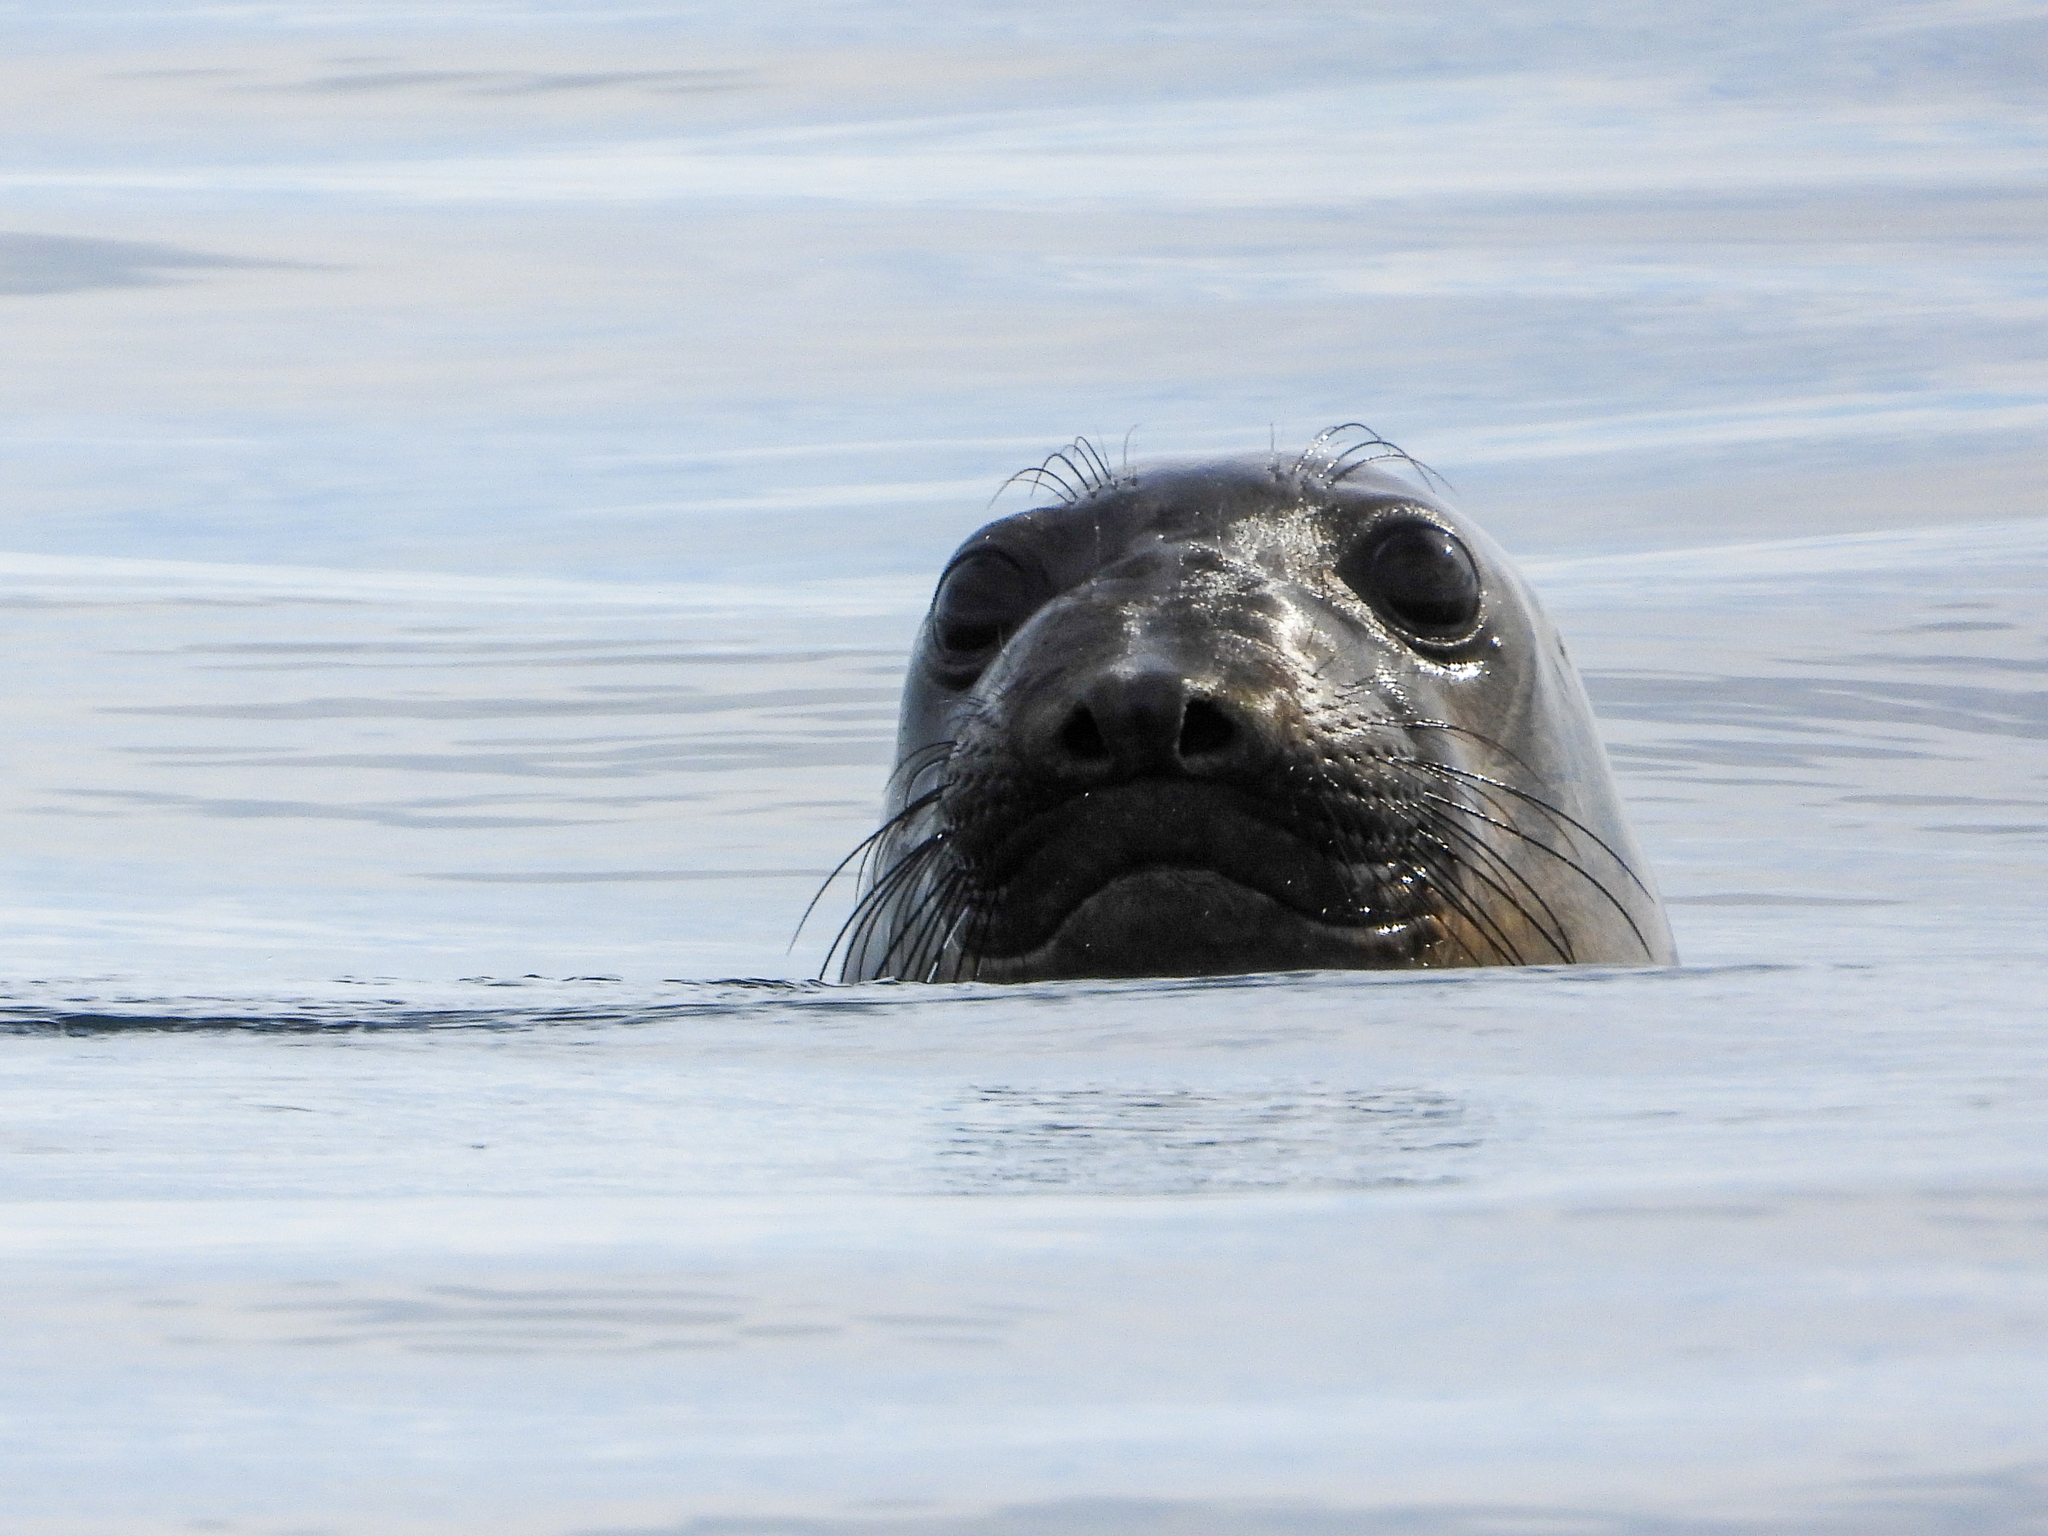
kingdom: Animalia
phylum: Chordata
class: Mammalia
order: Carnivora
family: Phocidae
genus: Mirounga
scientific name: Mirounga angustirostris
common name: Northern elephant seal
